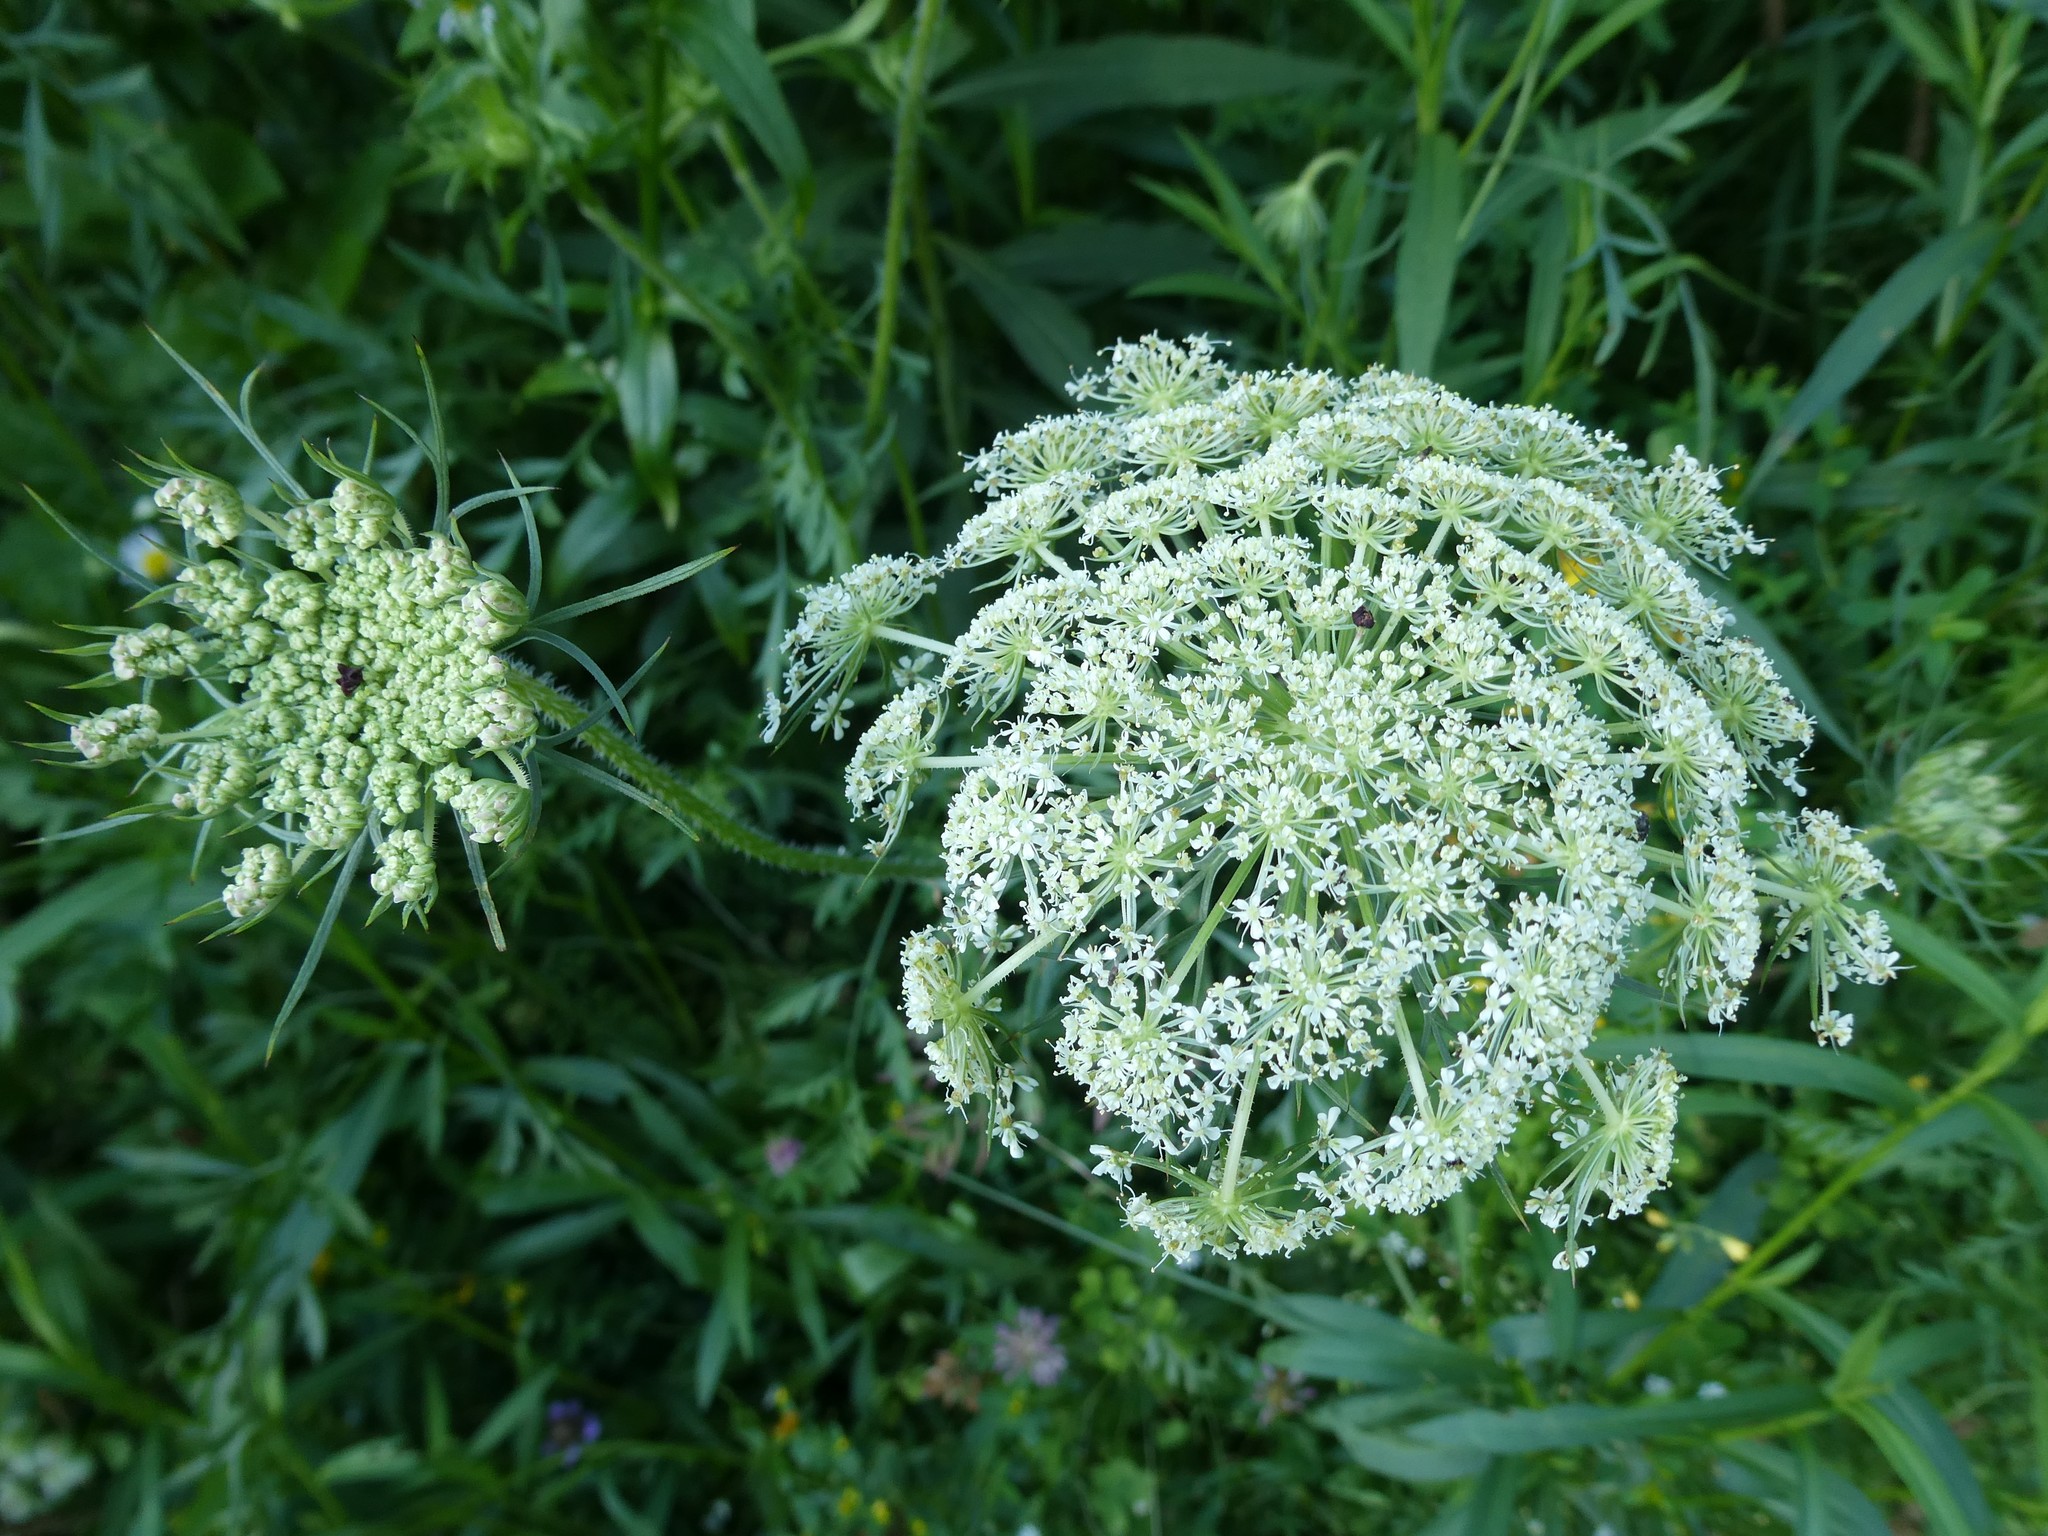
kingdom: Plantae
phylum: Tracheophyta
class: Magnoliopsida
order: Apiales
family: Apiaceae
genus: Daucus
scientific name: Daucus carota
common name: Wild carrot
